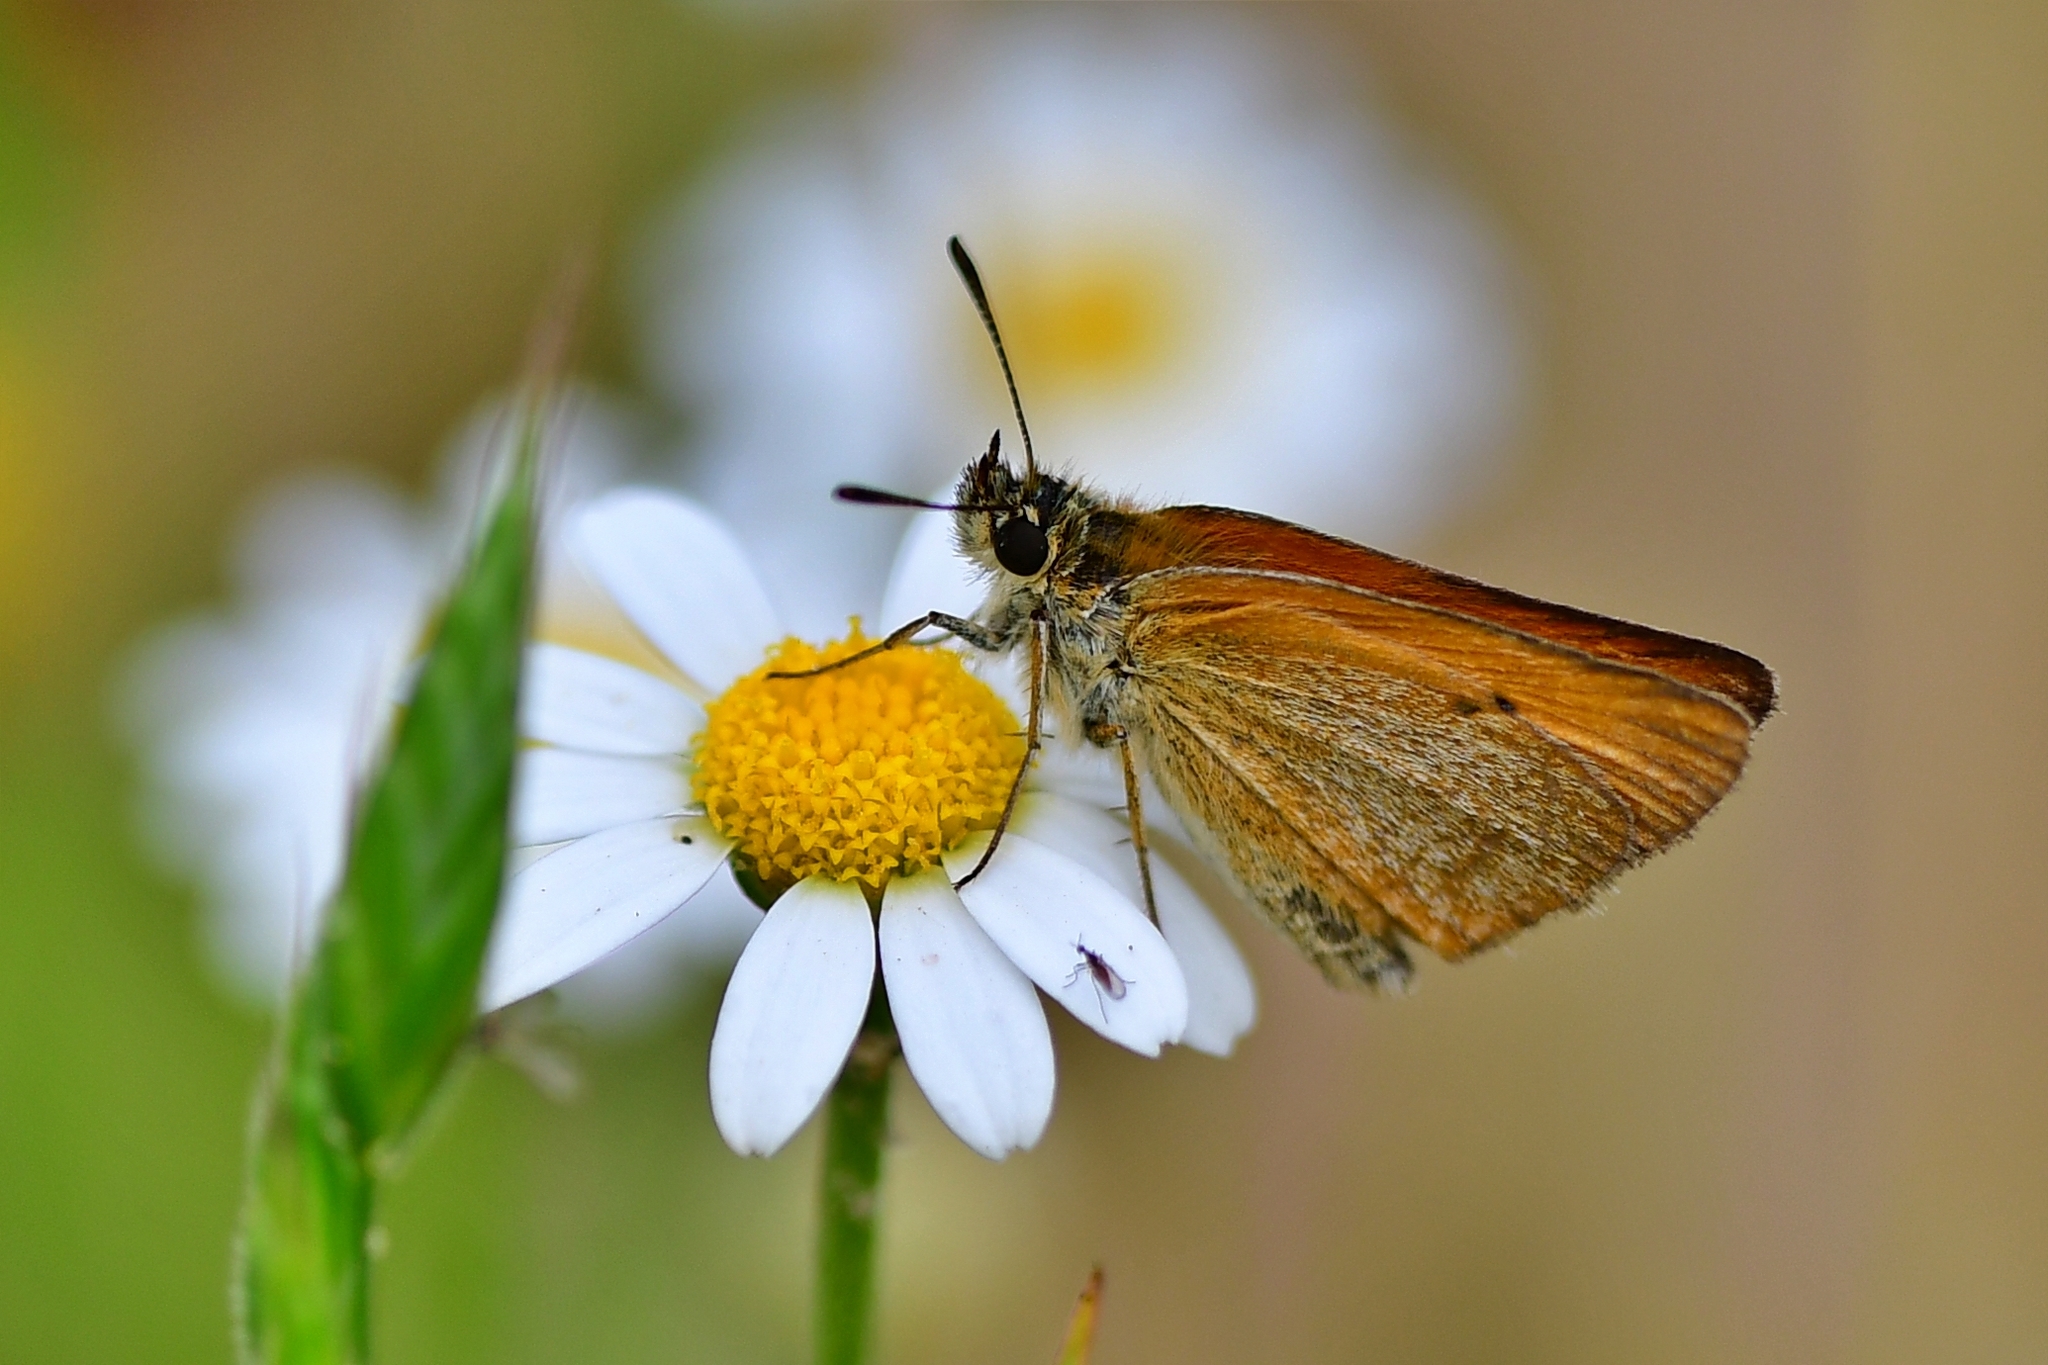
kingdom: Animalia
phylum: Arthropoda
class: Insecta
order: Lepidoptera
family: Hesperiidae
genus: Thymelicus
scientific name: Thymelicus lineola
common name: Essex skipper
